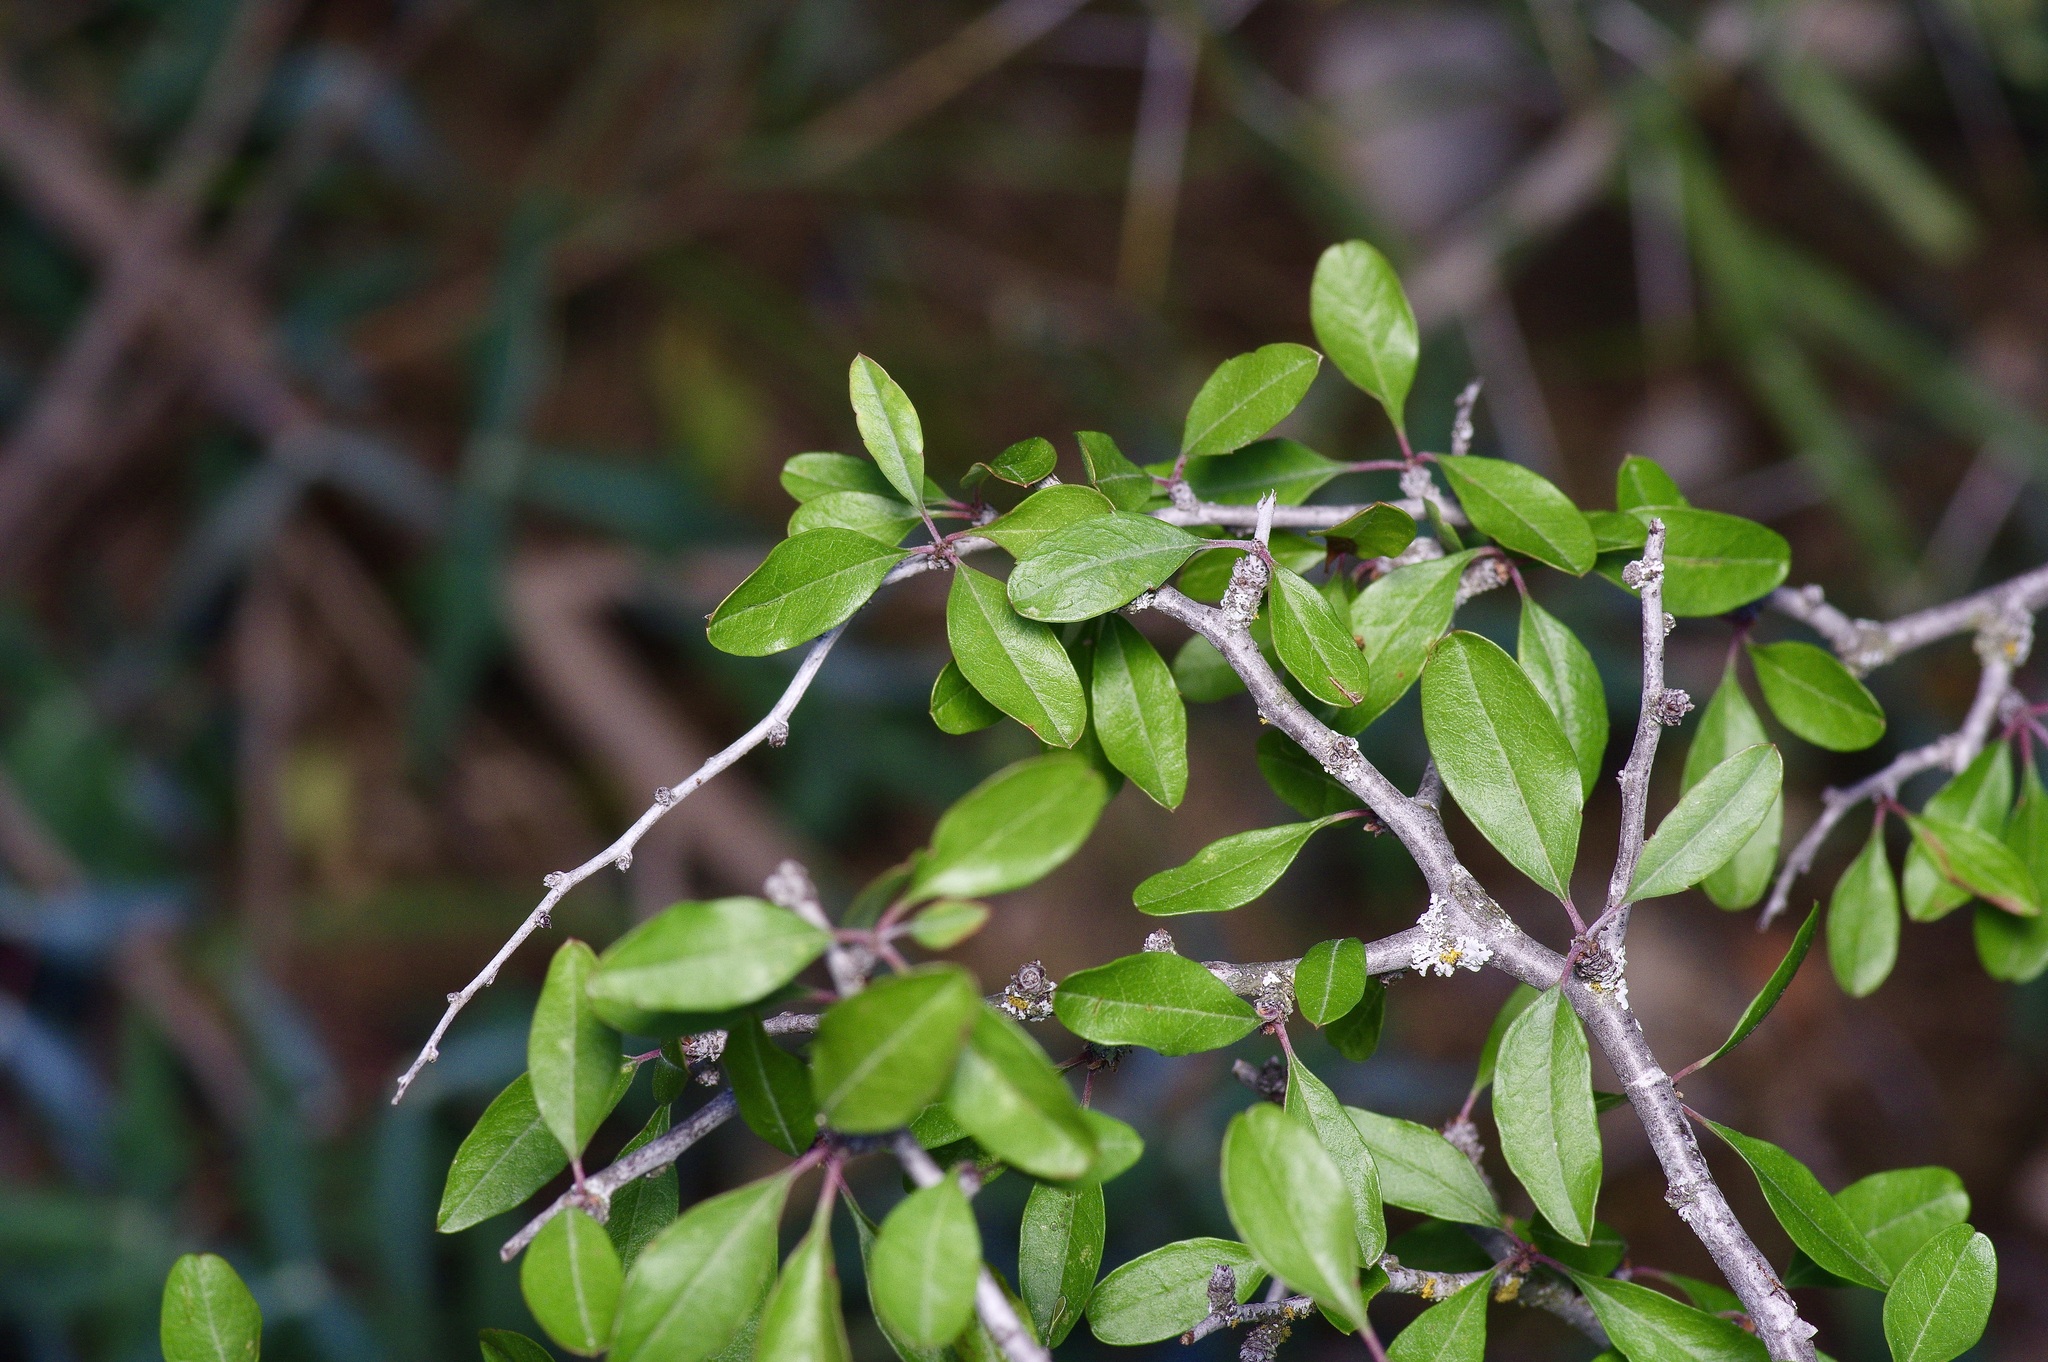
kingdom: Plantae
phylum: Tracheophyta
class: Magnoliopsida
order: Rosales
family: Rosaceae
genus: Prunus
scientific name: Prunus minutiflora
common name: Texas almond
